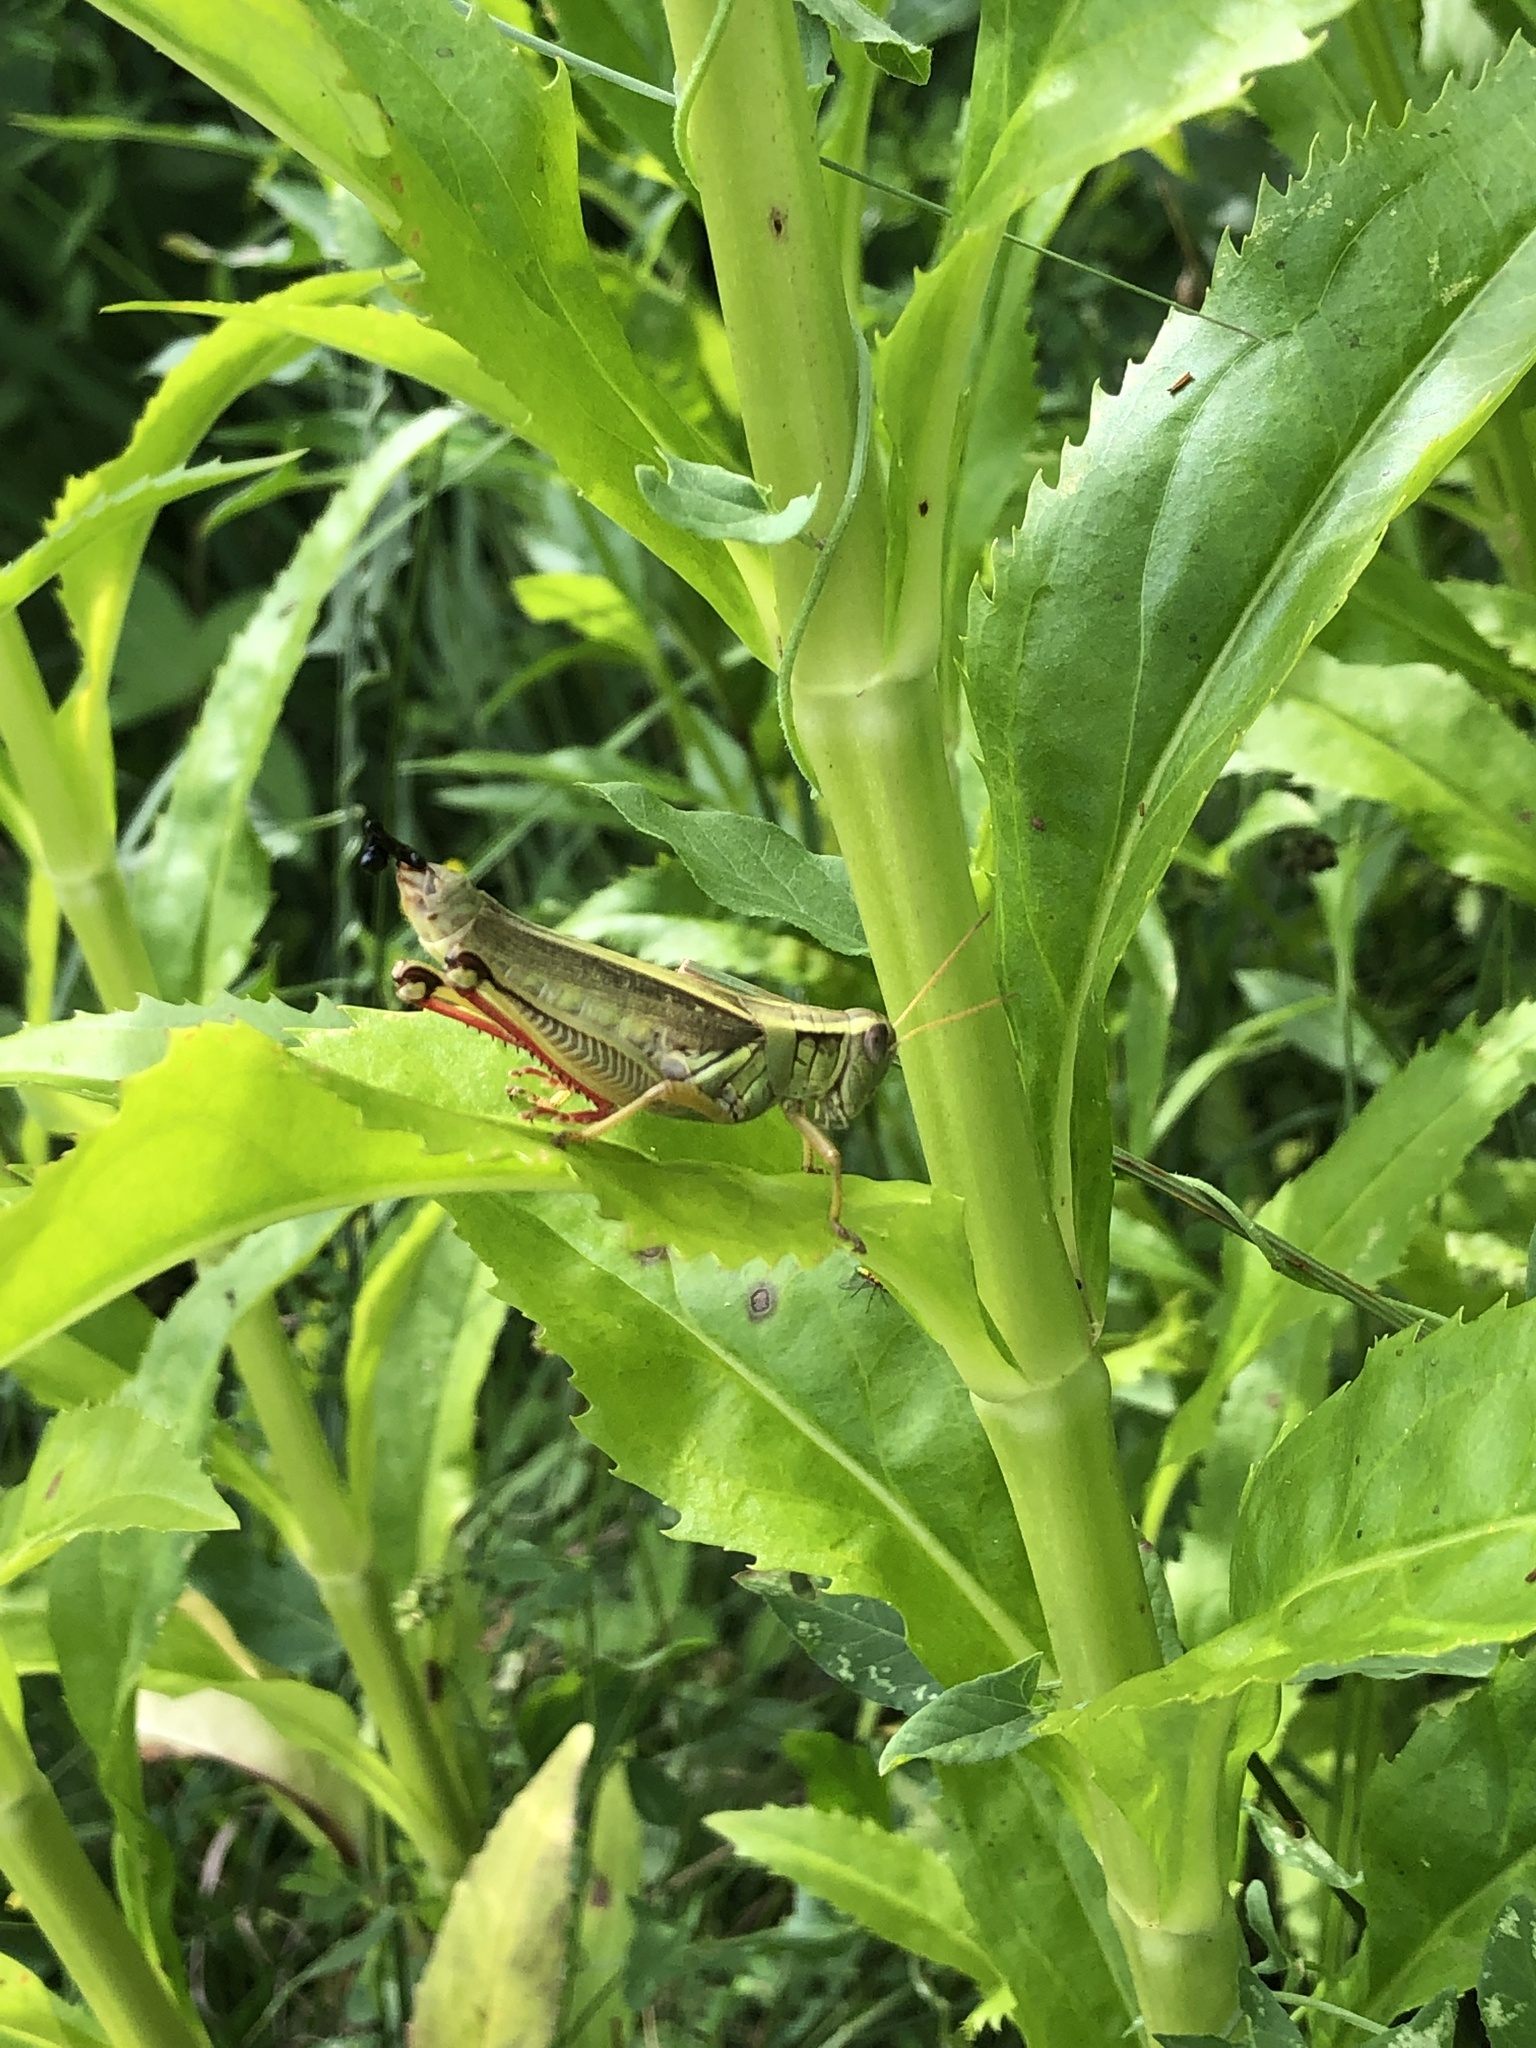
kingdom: Animalia
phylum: Arthropoda
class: Insecta
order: Orthoptera
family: Acrididae
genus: Melanoplus
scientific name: Melanoplus bivittatus
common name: Two-striped grasshopper
